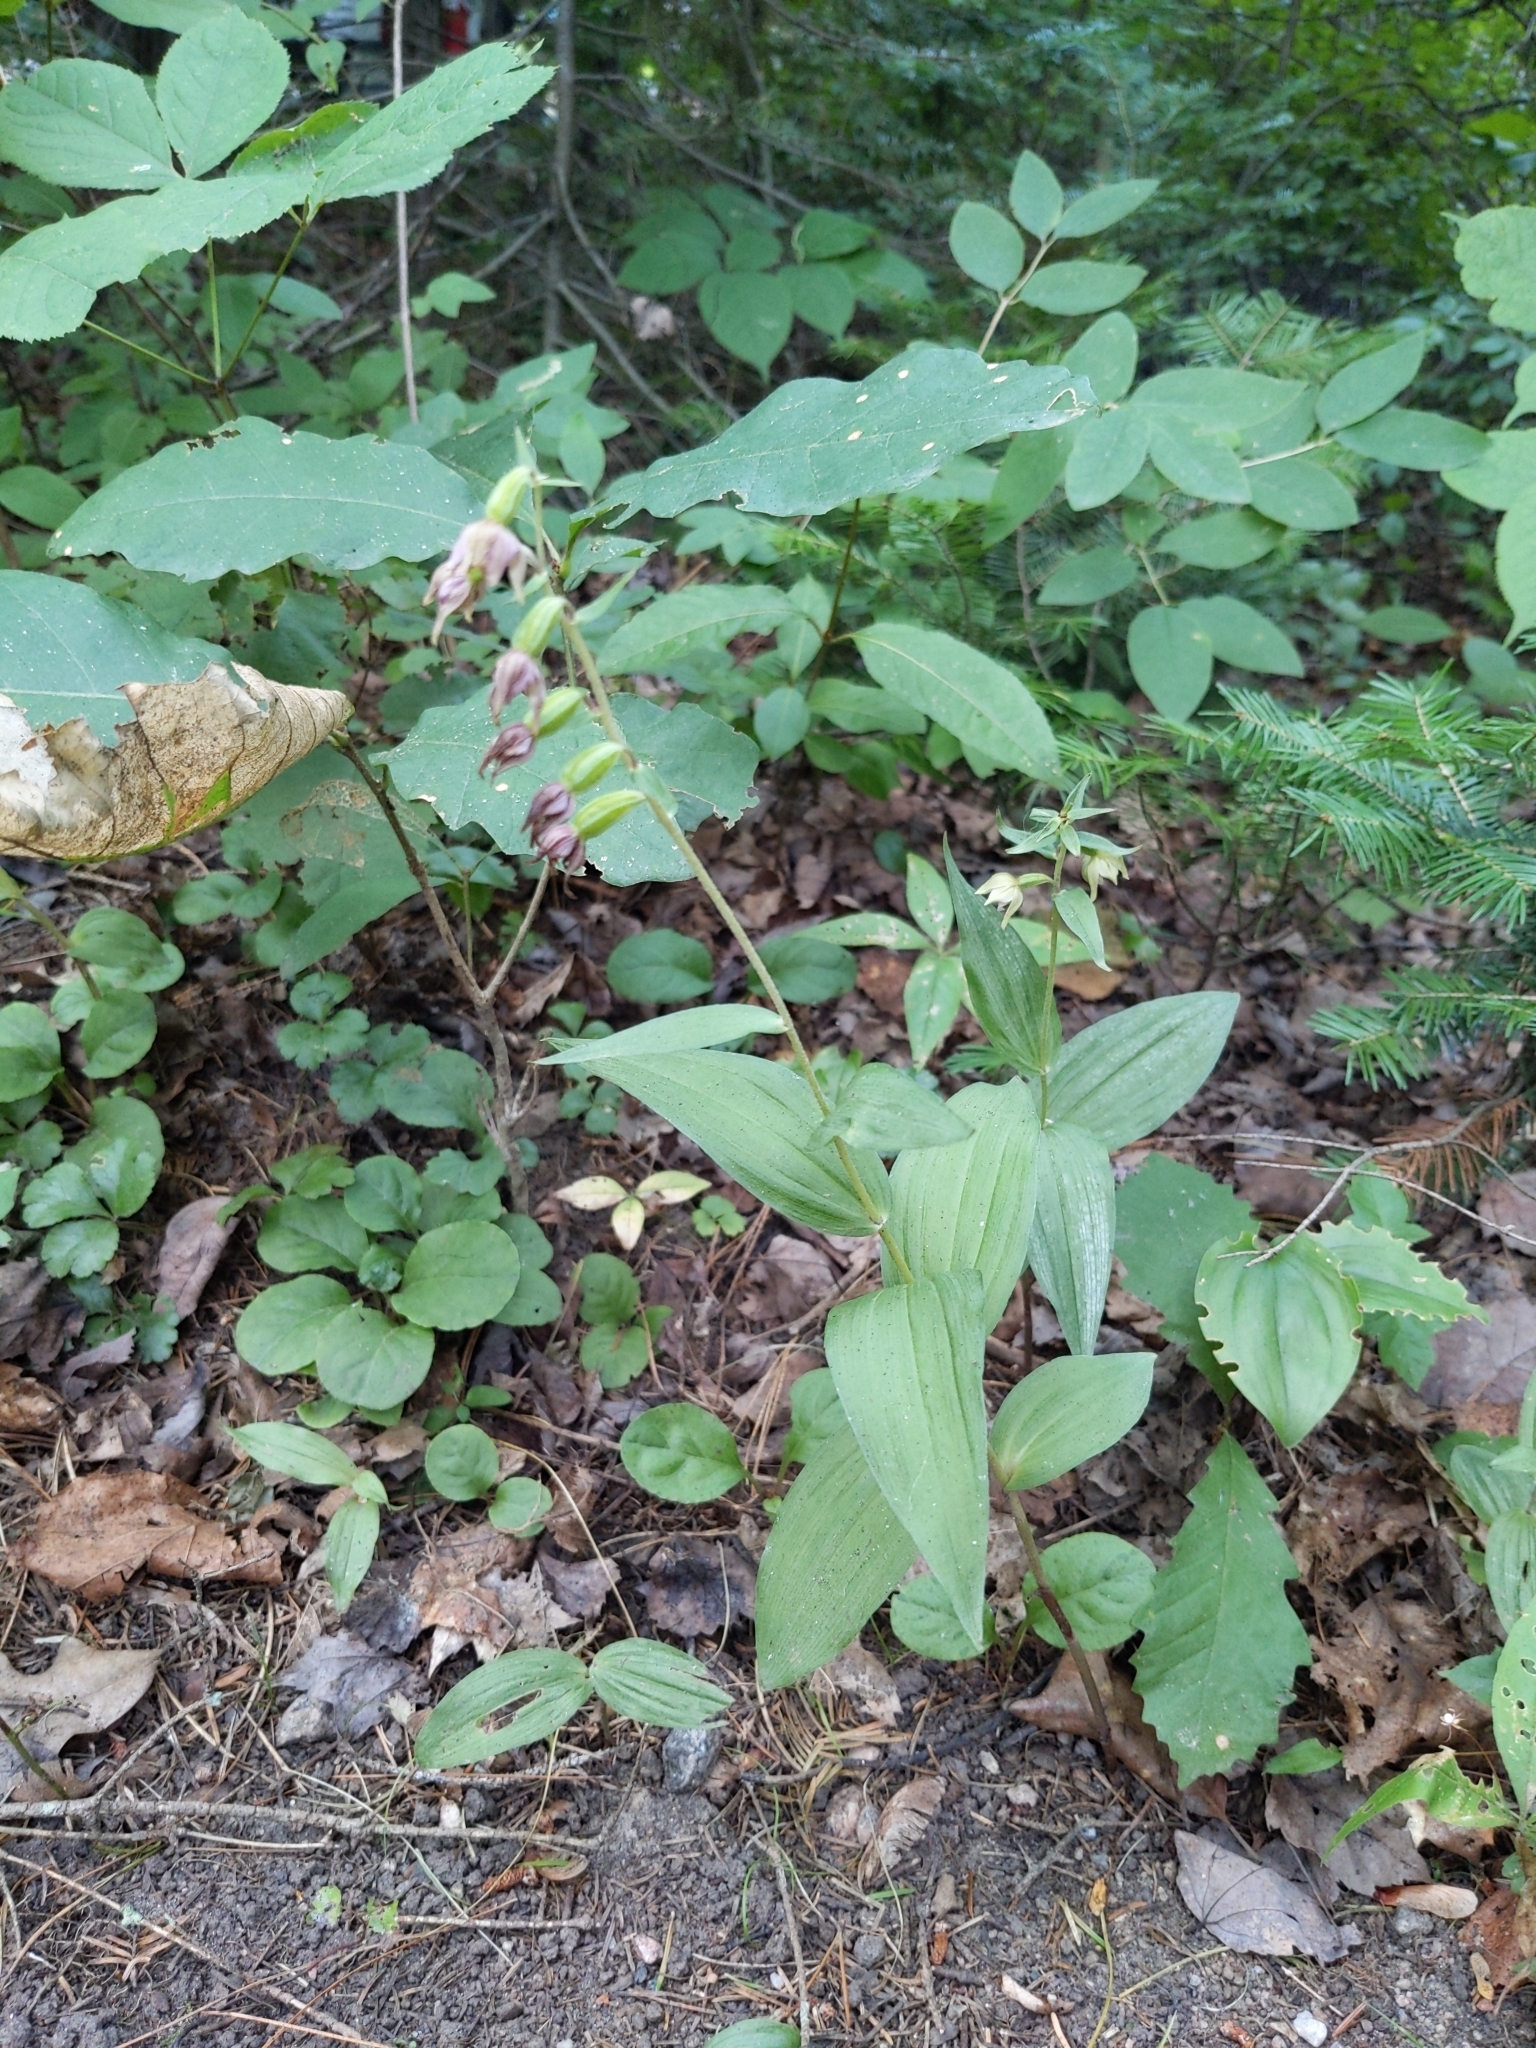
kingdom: Plantae
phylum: Tracheophyta
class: Liliopsida
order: Asparagales
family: Orchidaceae
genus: Epipactis
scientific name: Epipactis helleborine
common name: Broad-leaved helleborine
